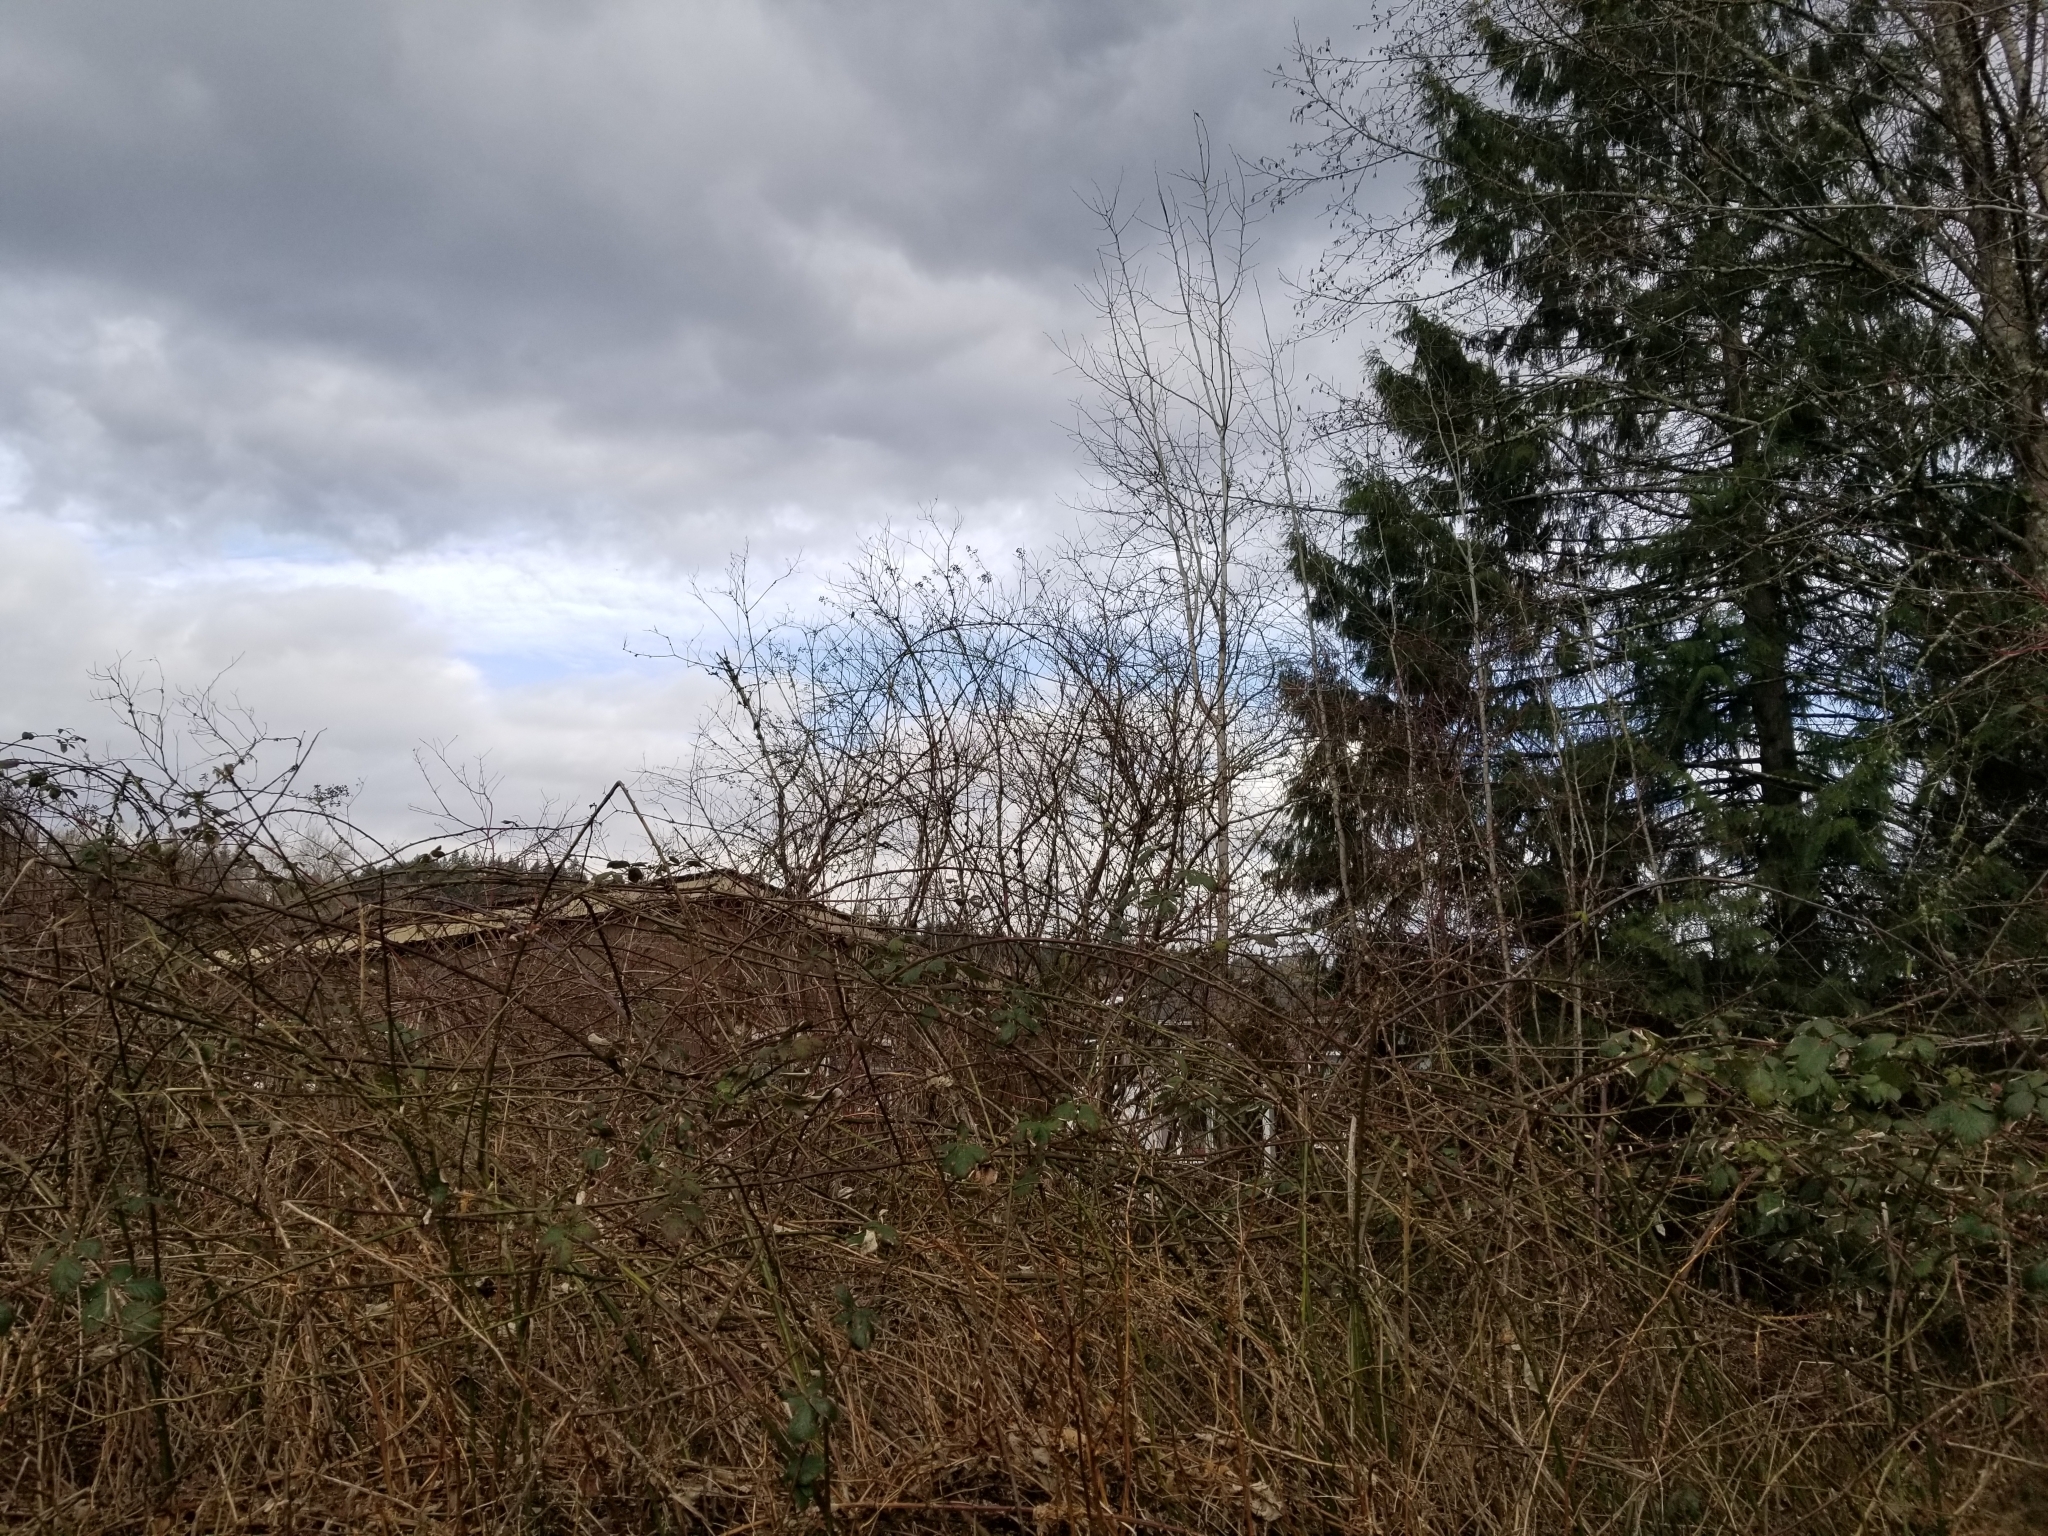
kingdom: Animalia
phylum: Chordata
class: Aves
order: Apodiformes
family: Trochilidae
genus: Calypte
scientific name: Calypte anna
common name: Anna's hummingbird
